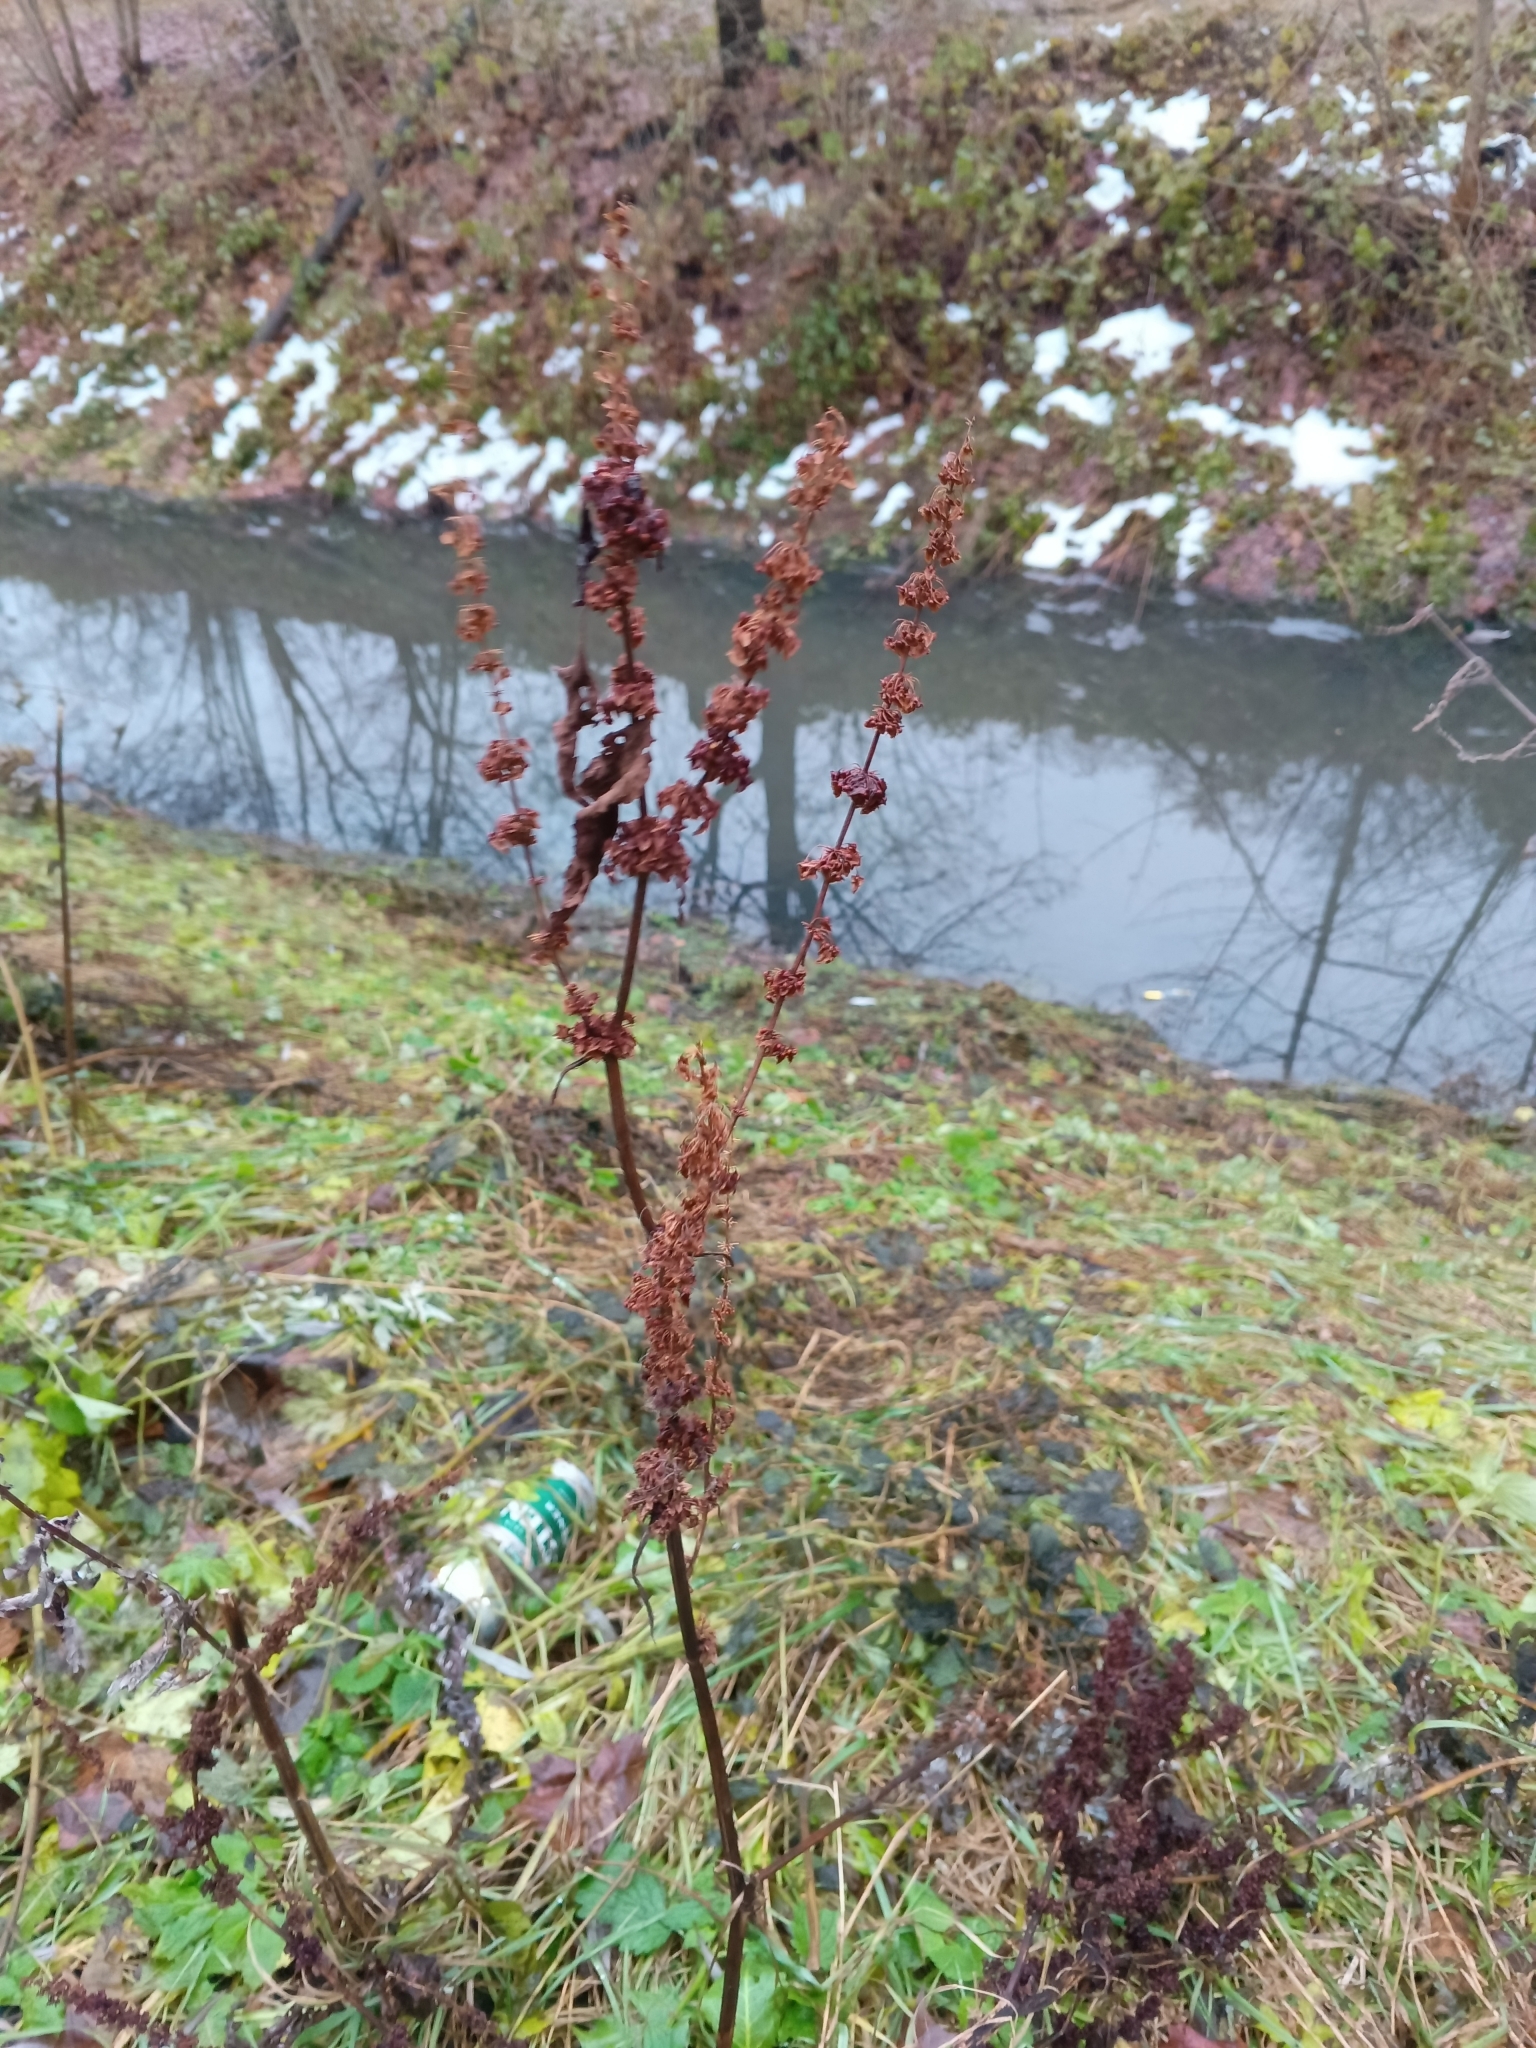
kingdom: Plantae
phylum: Tracheophyta
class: Magnoliopsida
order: Caryophyllales
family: Polygonaceae
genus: Rumex
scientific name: Rumex obtusifolius
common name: Bitter dock
